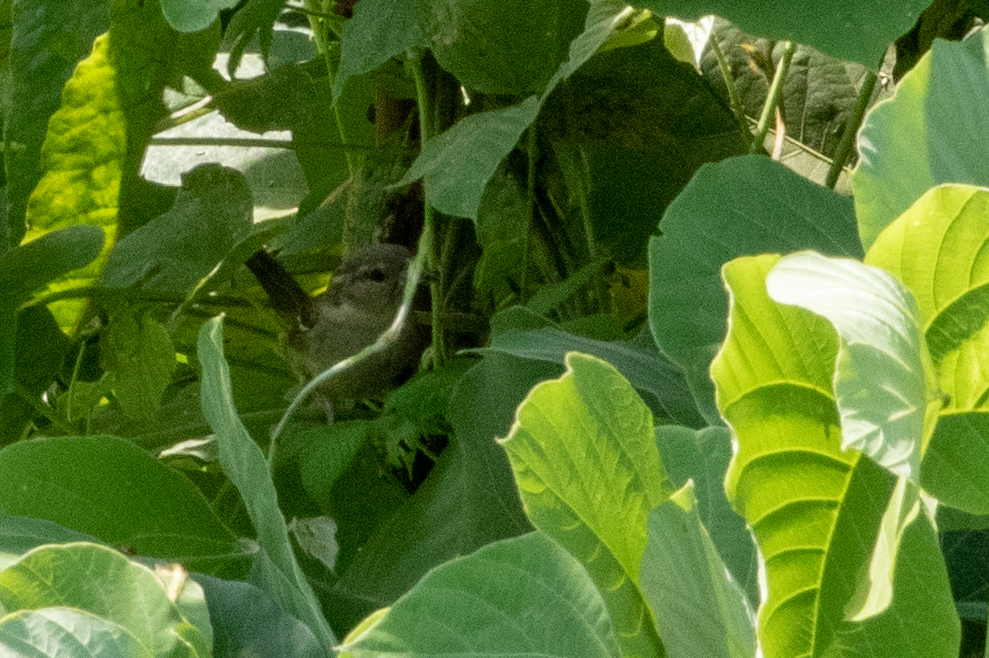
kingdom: Animalia
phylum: Chordata
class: Aves
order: Passeriformes
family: Passeridae
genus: Passer
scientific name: Passer domesticus
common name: House sparrow
